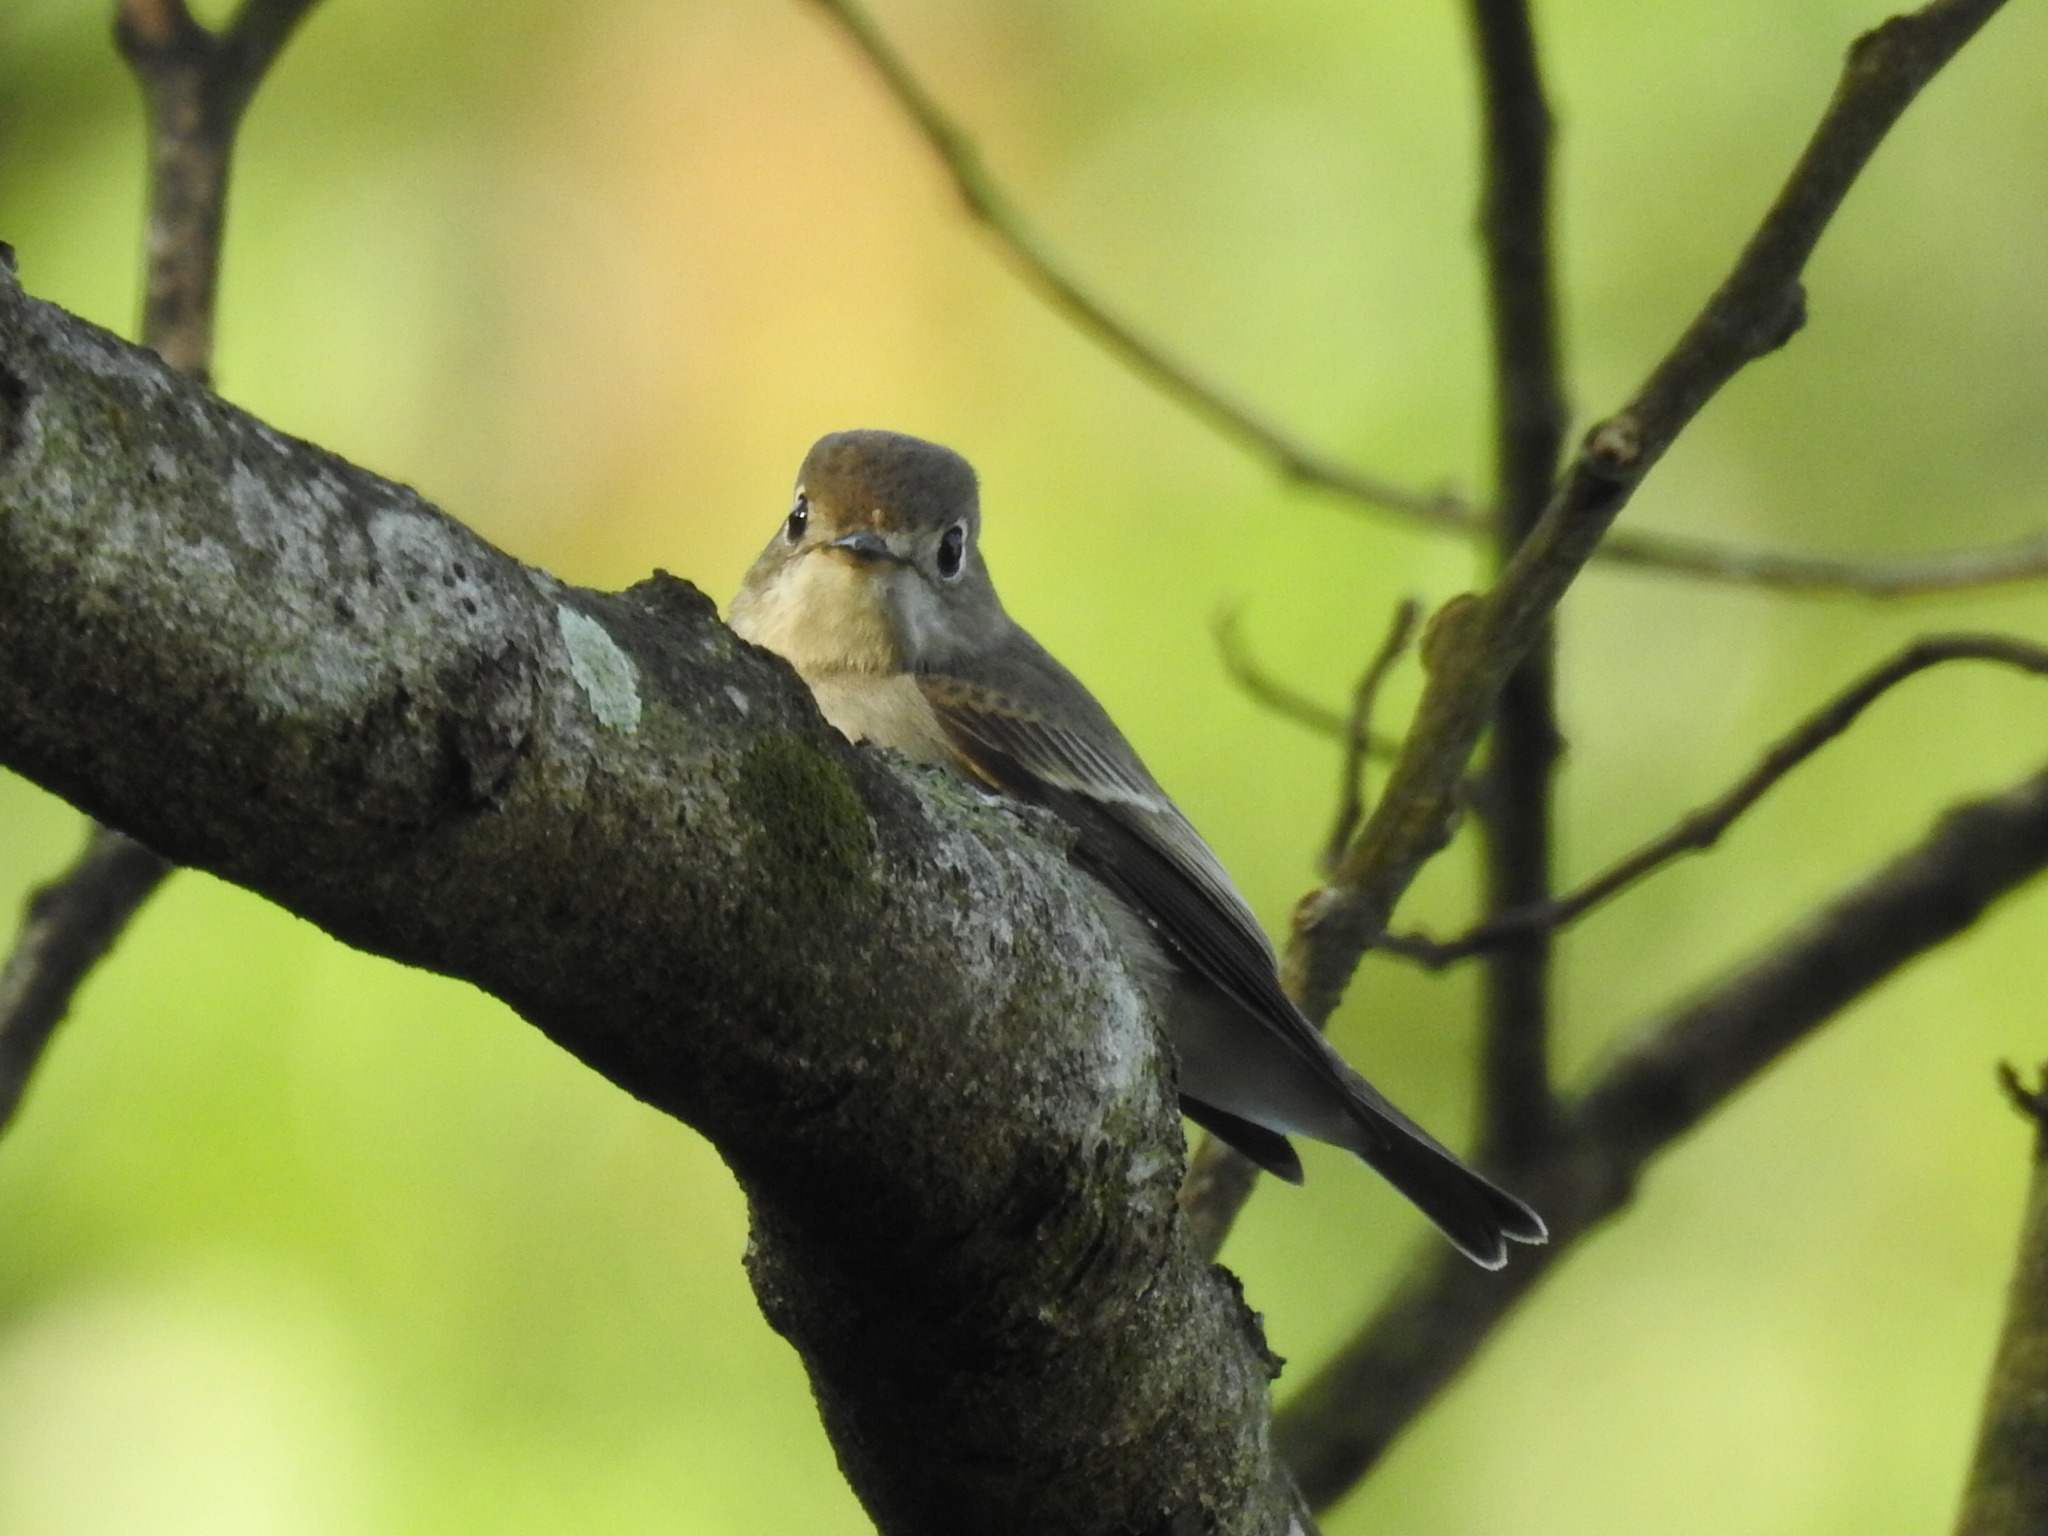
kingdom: Animalia
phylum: Chordata
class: Aves
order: Passeriformes
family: Muscicapidae
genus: Muscicapa
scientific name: Muscicapa latirostris
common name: Asian brown flycatcher
